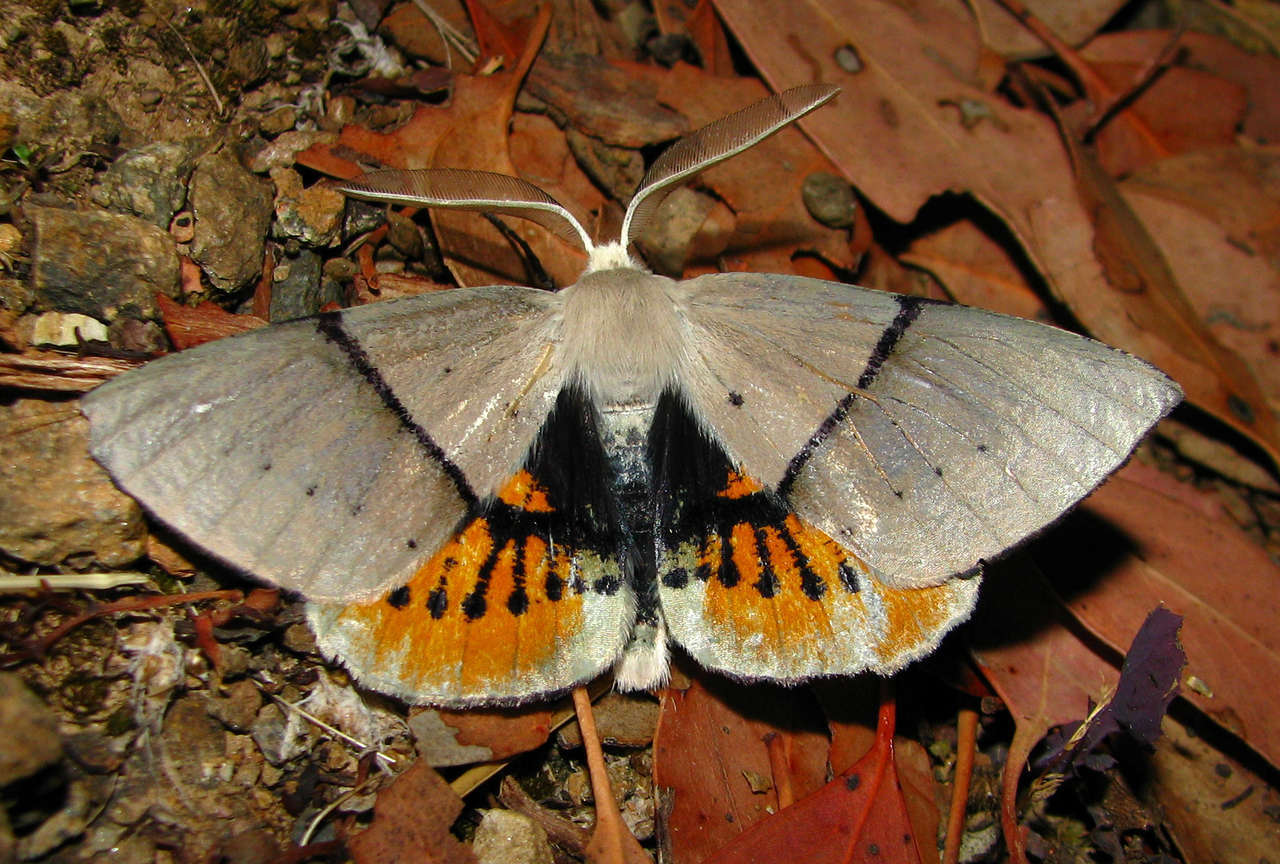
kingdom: Animalia
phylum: Arthropoda
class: Insecta
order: Lepidoptera
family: Geometridae
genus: Gastrophora
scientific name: Gastrophora henricaria
